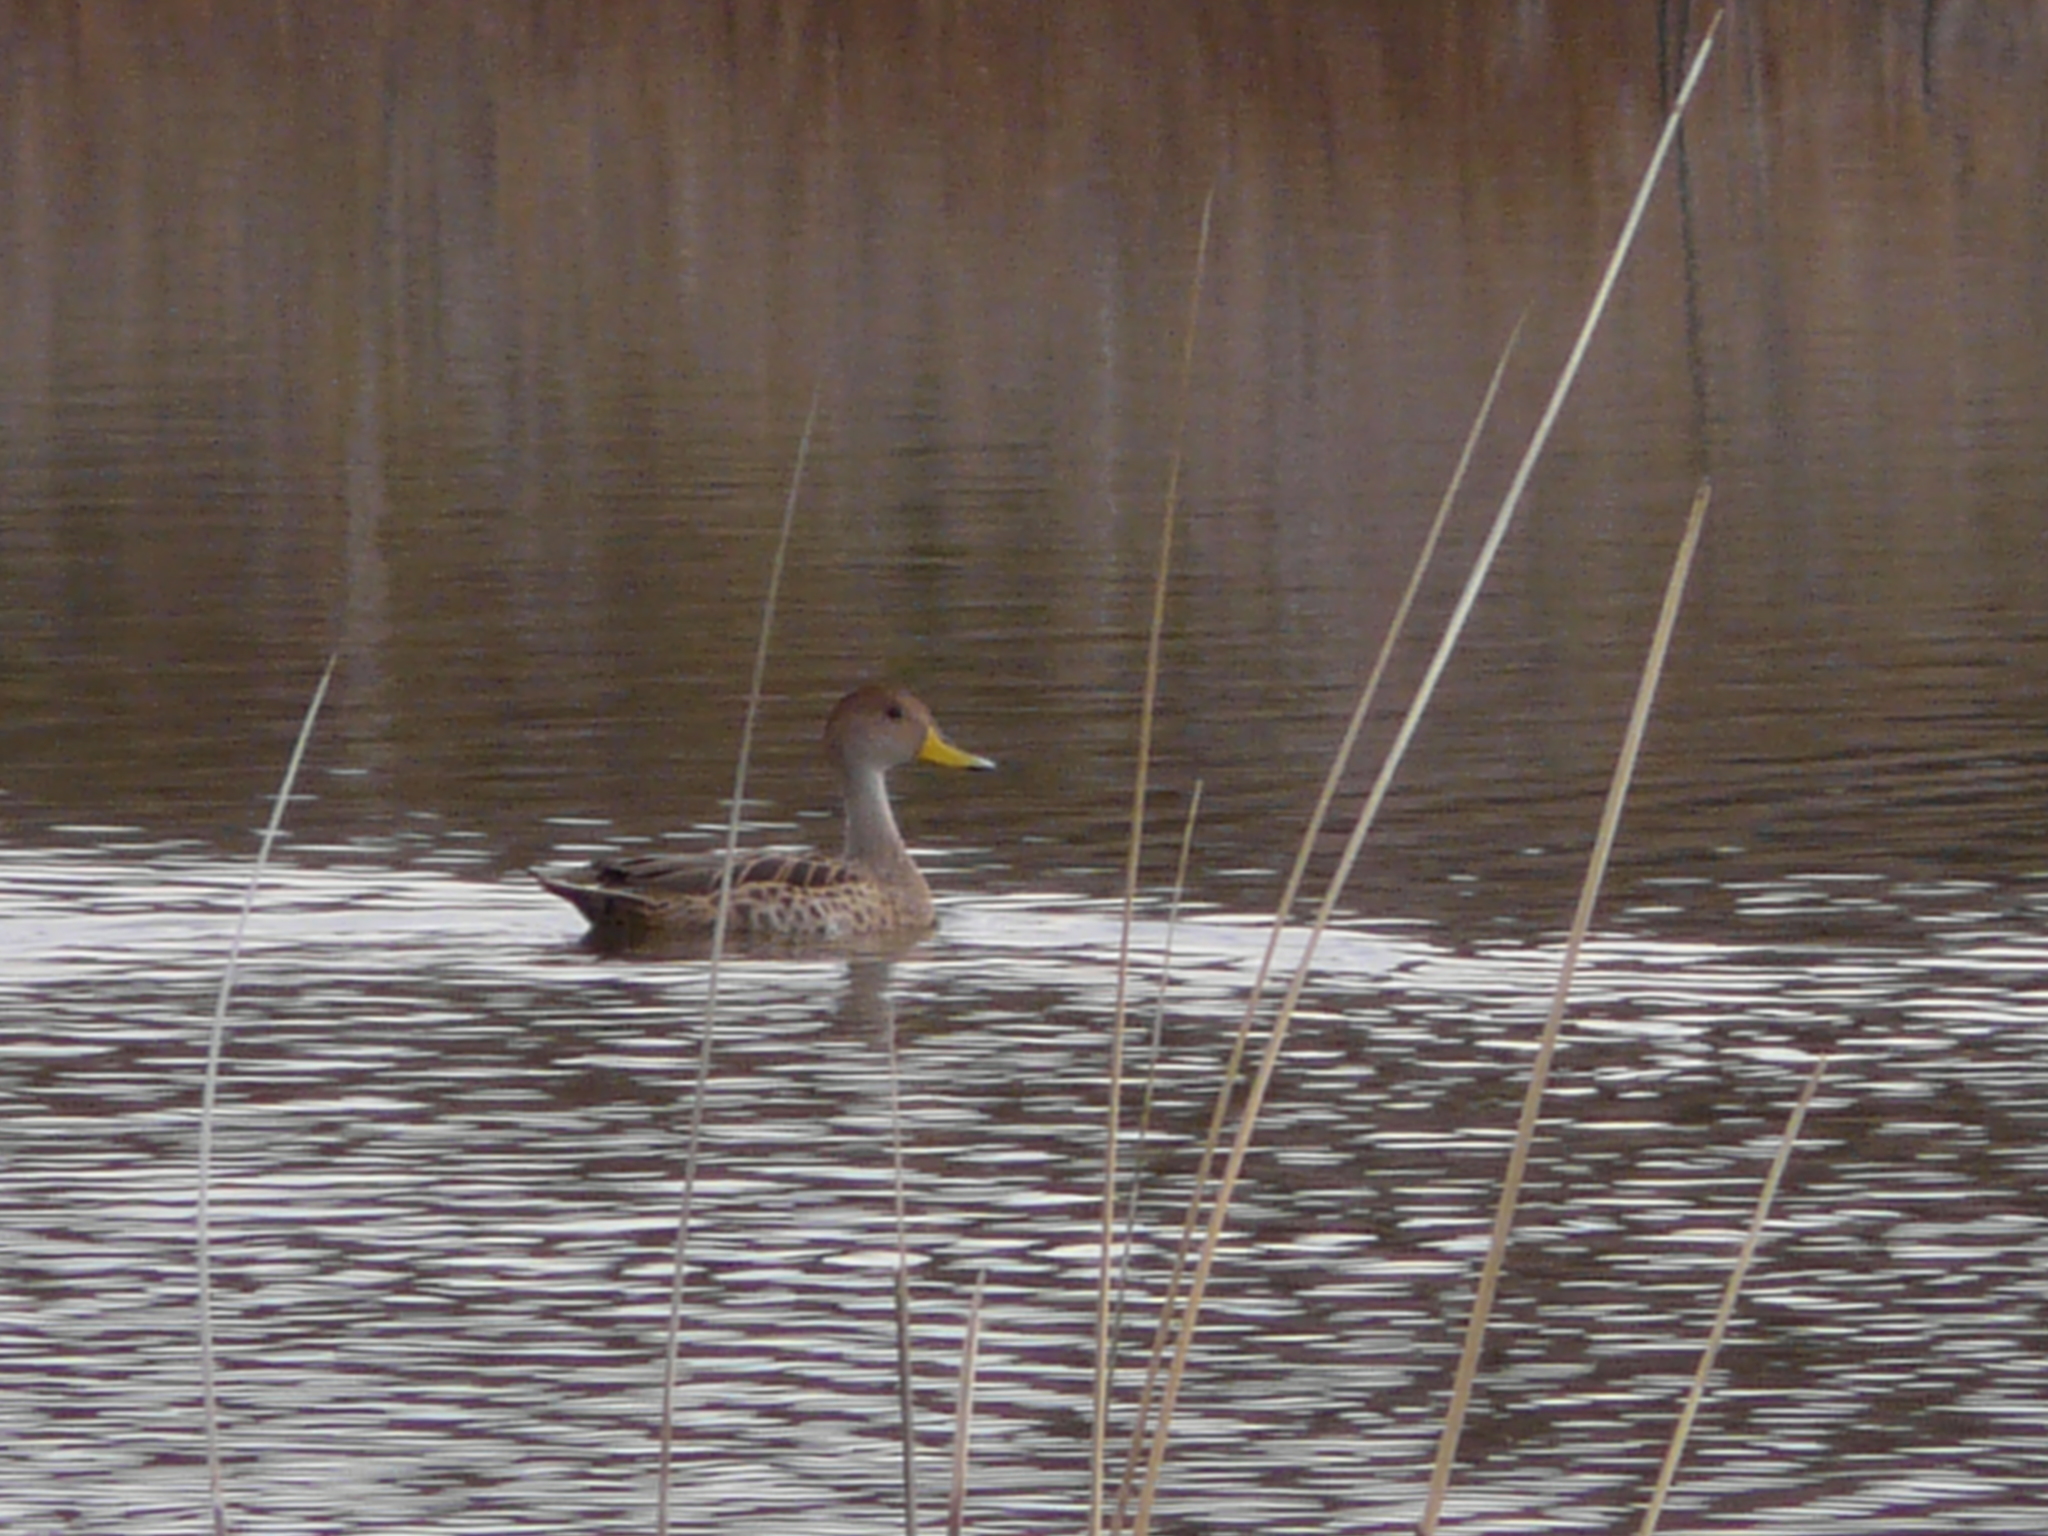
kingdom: Animalia
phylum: Chordata
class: Aves
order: Anseriformes
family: Anatidae
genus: Anas
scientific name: Anas georgica
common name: Yellow-billed pintail
